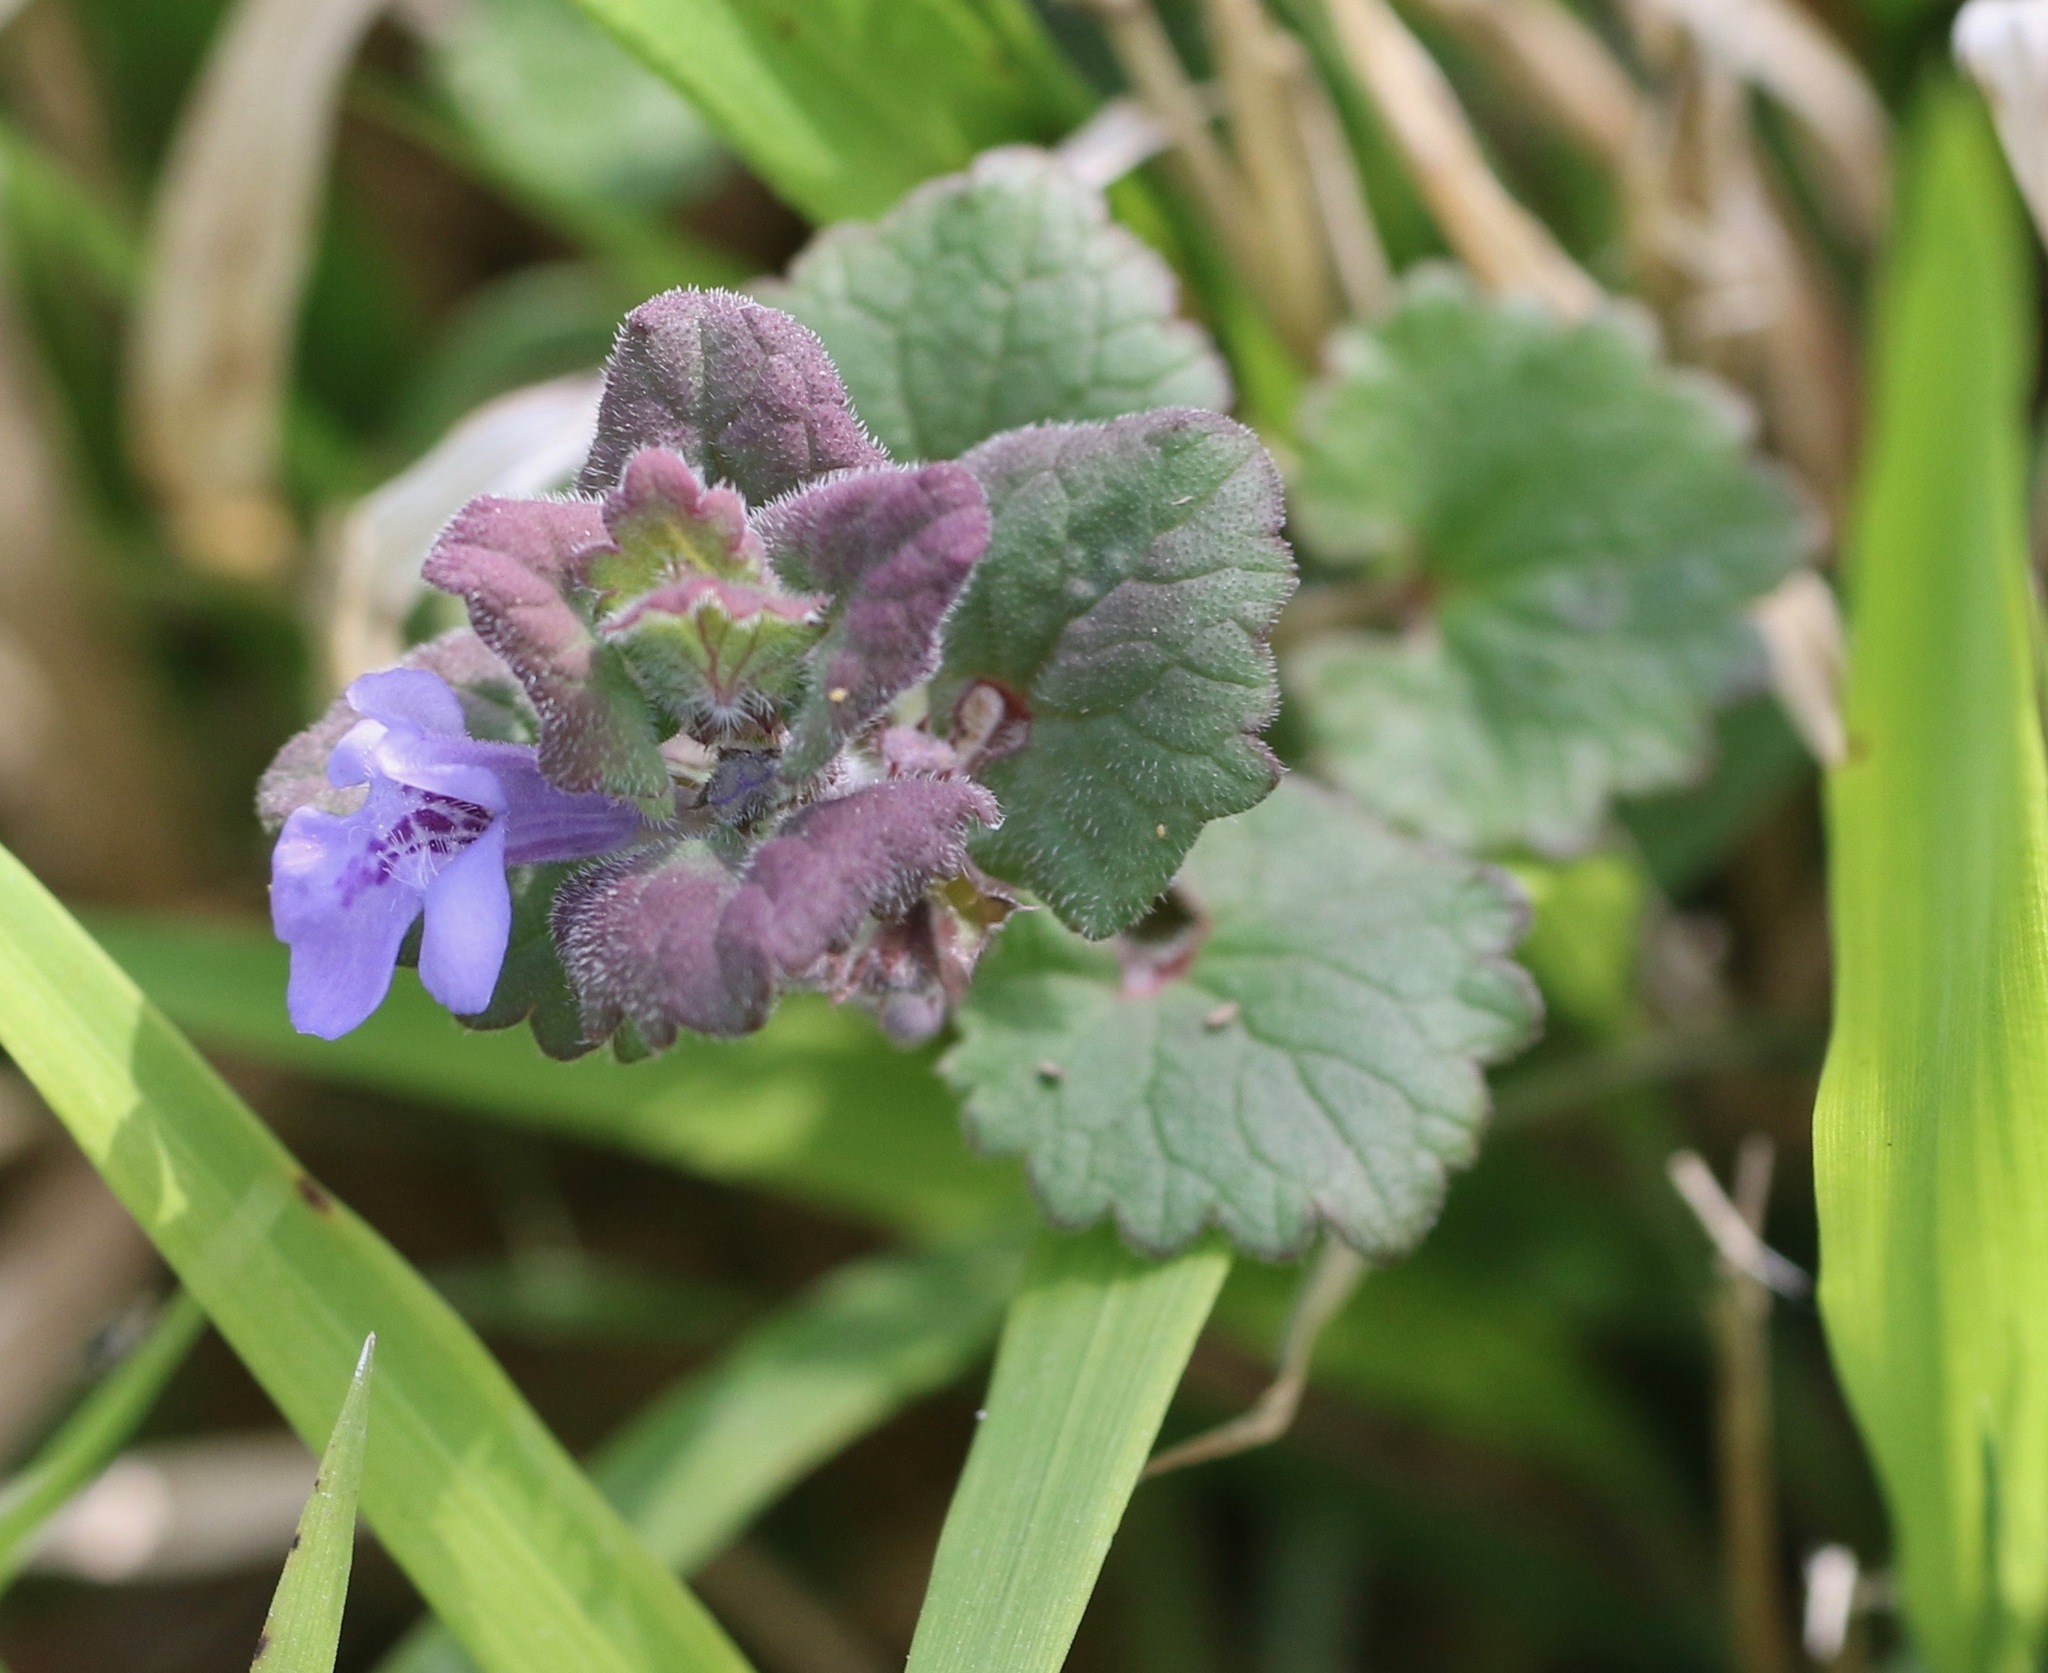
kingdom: Plantae
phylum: Tracheophyta
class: Magnoliopsida
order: Lamiales
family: Lamiaceae
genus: Glechoma
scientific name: Glechoma hederacea
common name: Ground ivy
